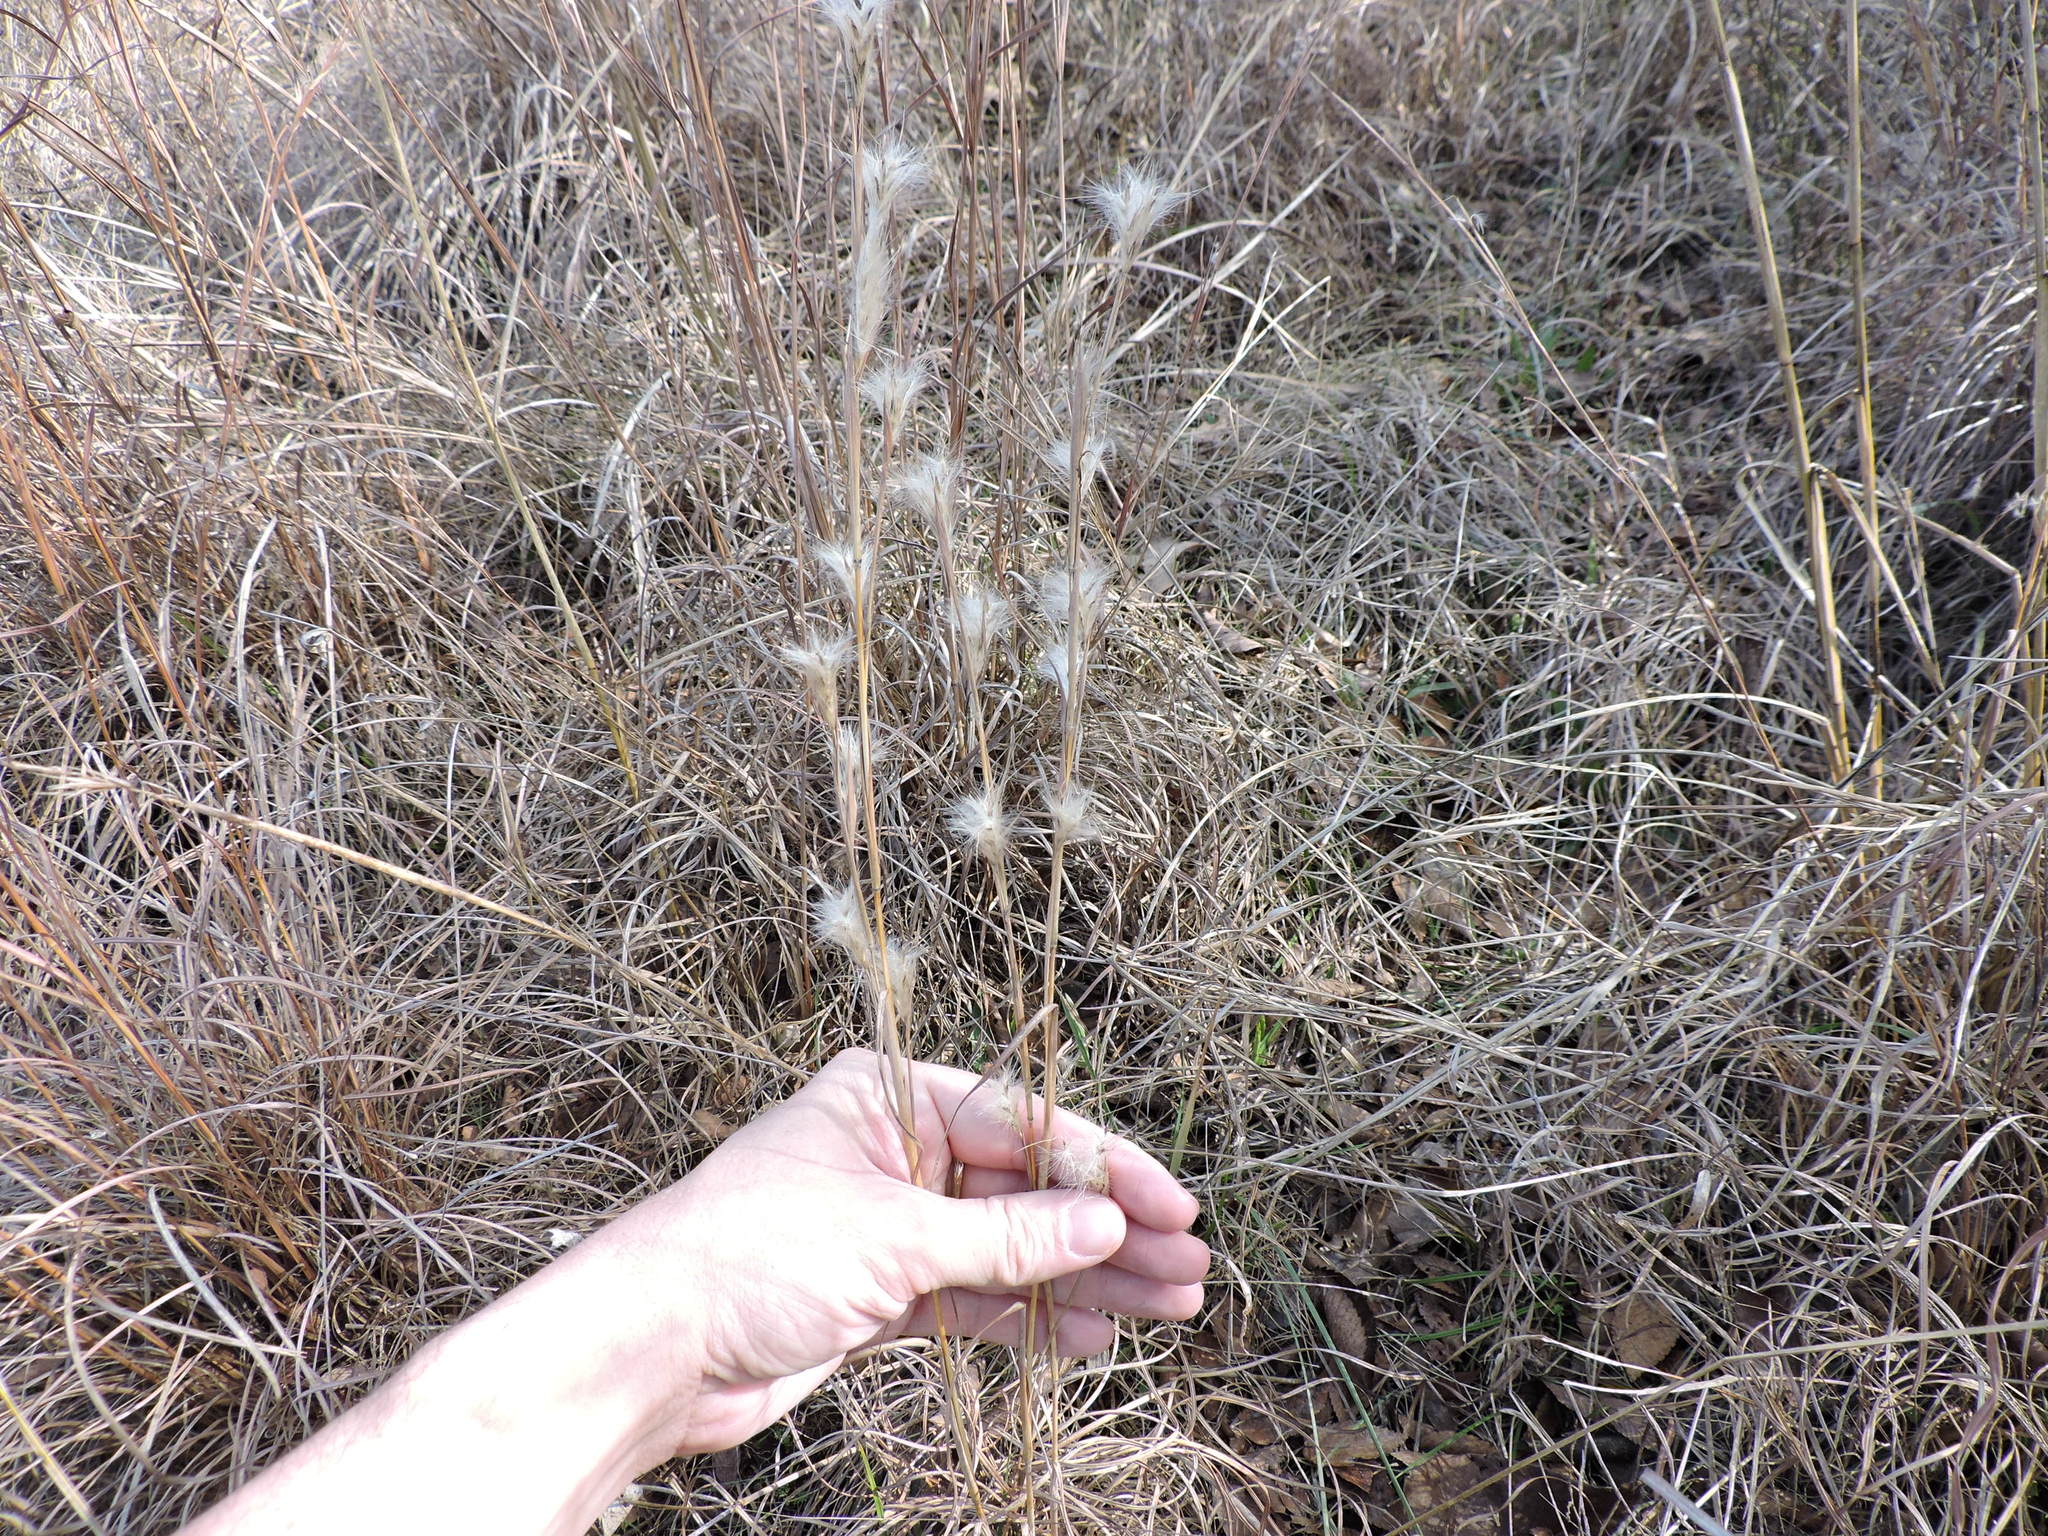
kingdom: Plantae
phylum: Tracheophyta
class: Liliopsida
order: Poales
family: Poaceae
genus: Andropogon
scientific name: Andropogon ternarius
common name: Split bluestem
